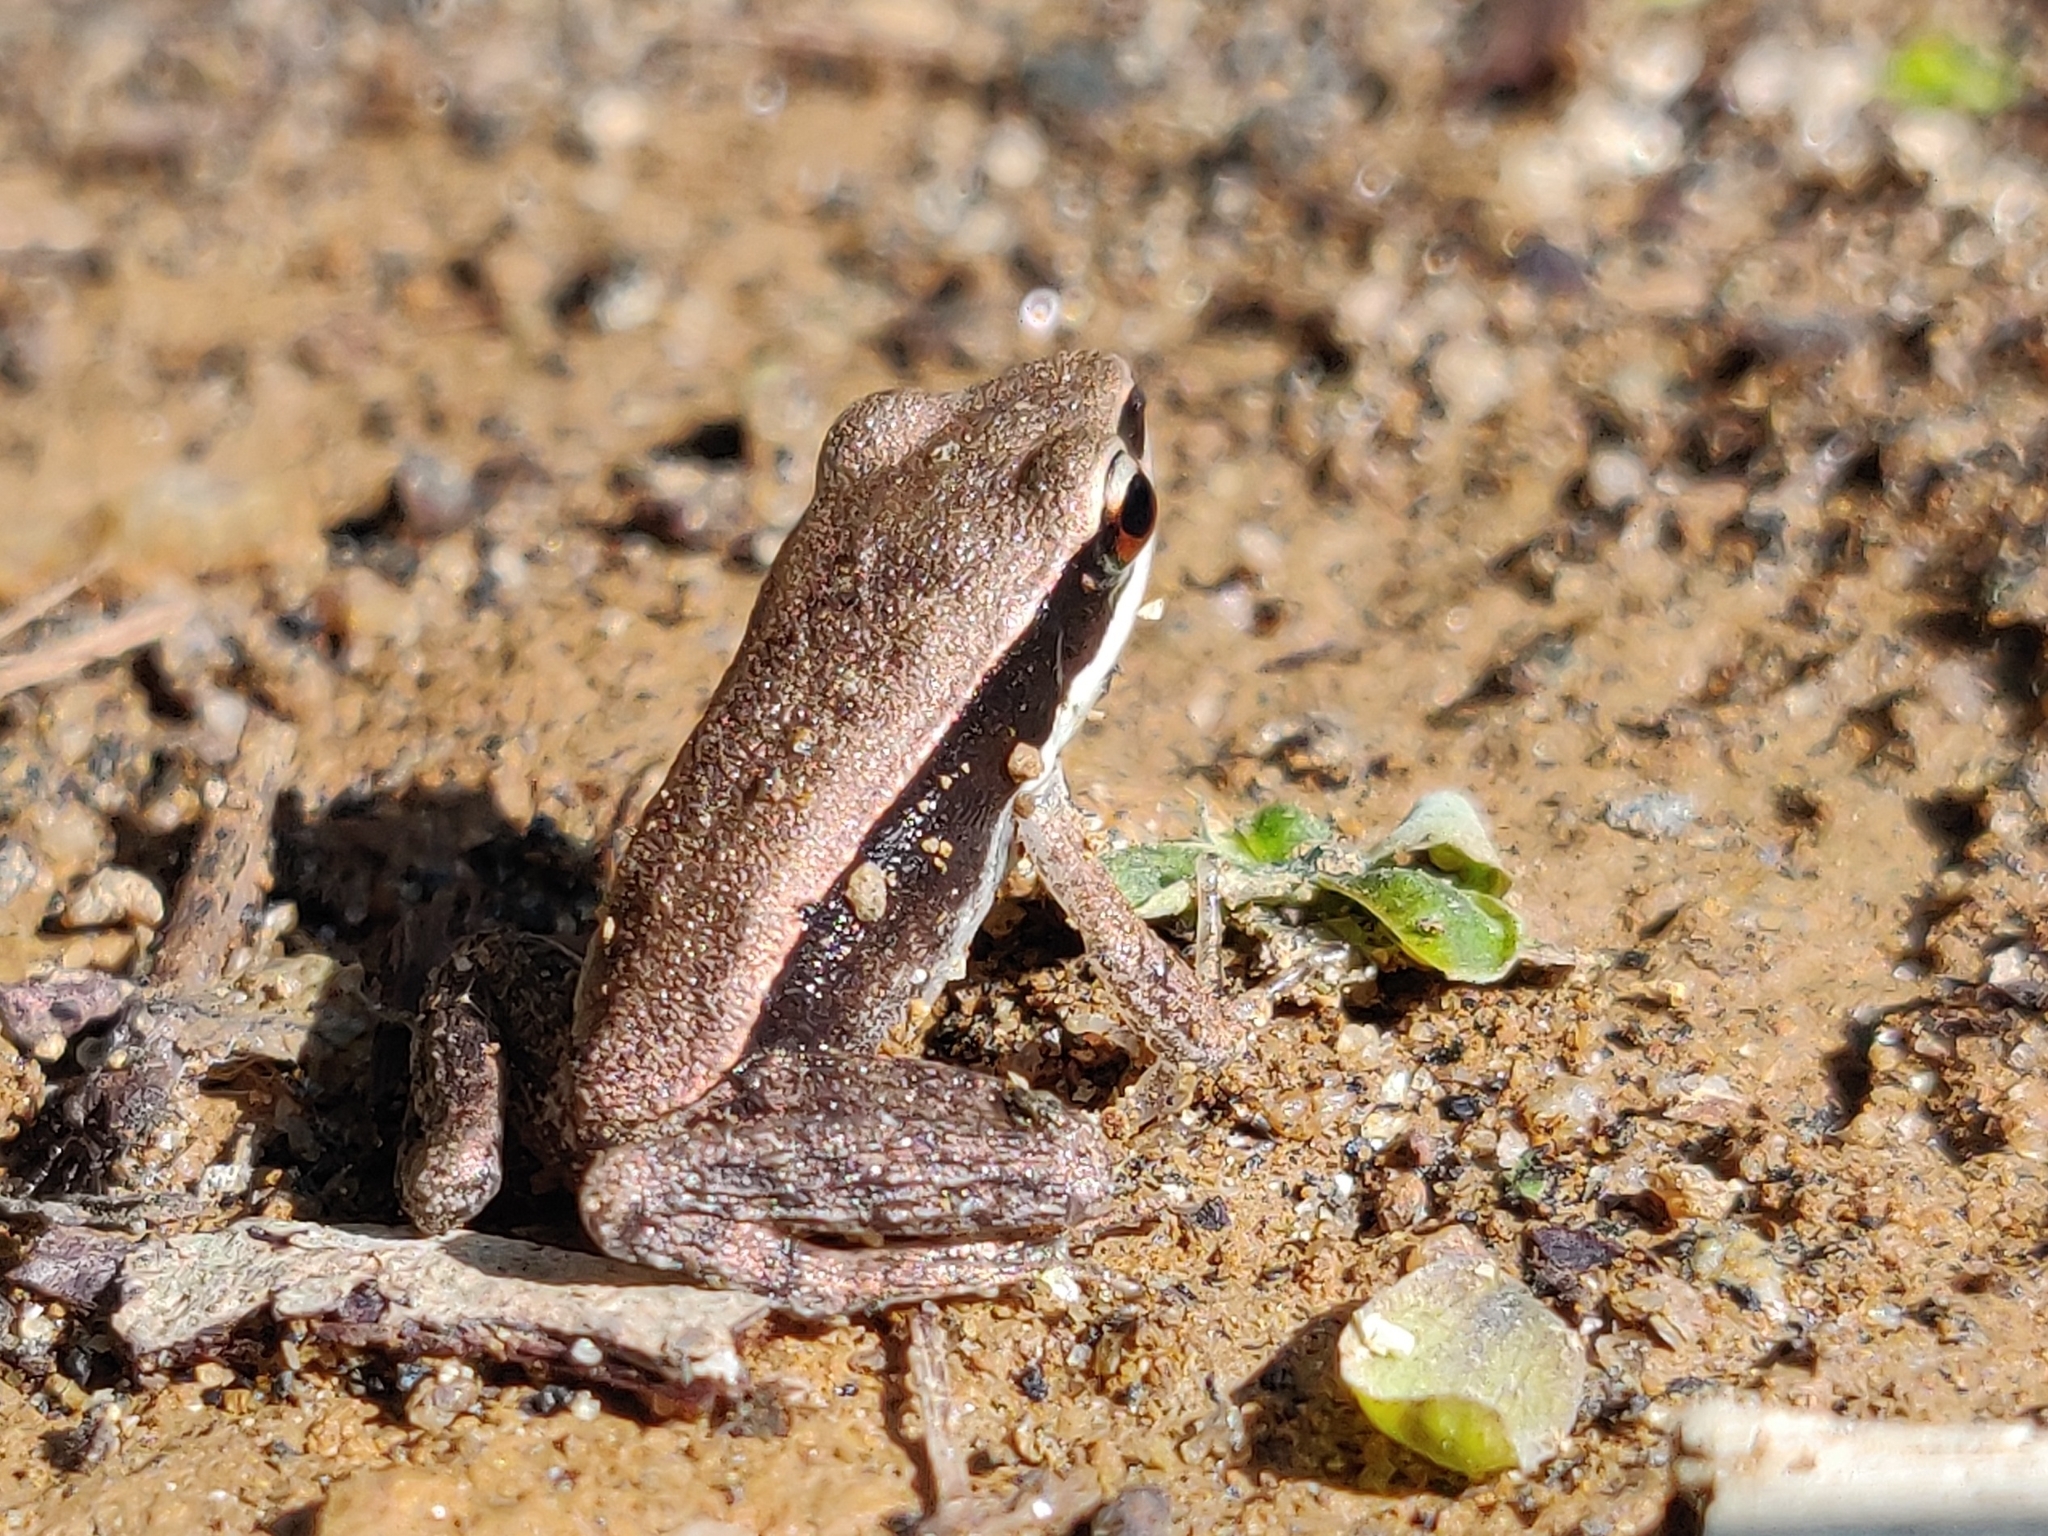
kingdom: Animalia
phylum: Chordata
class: Amphibia
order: Anura
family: Ranidae
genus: Indosylvirana
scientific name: Indosylvirana doni
